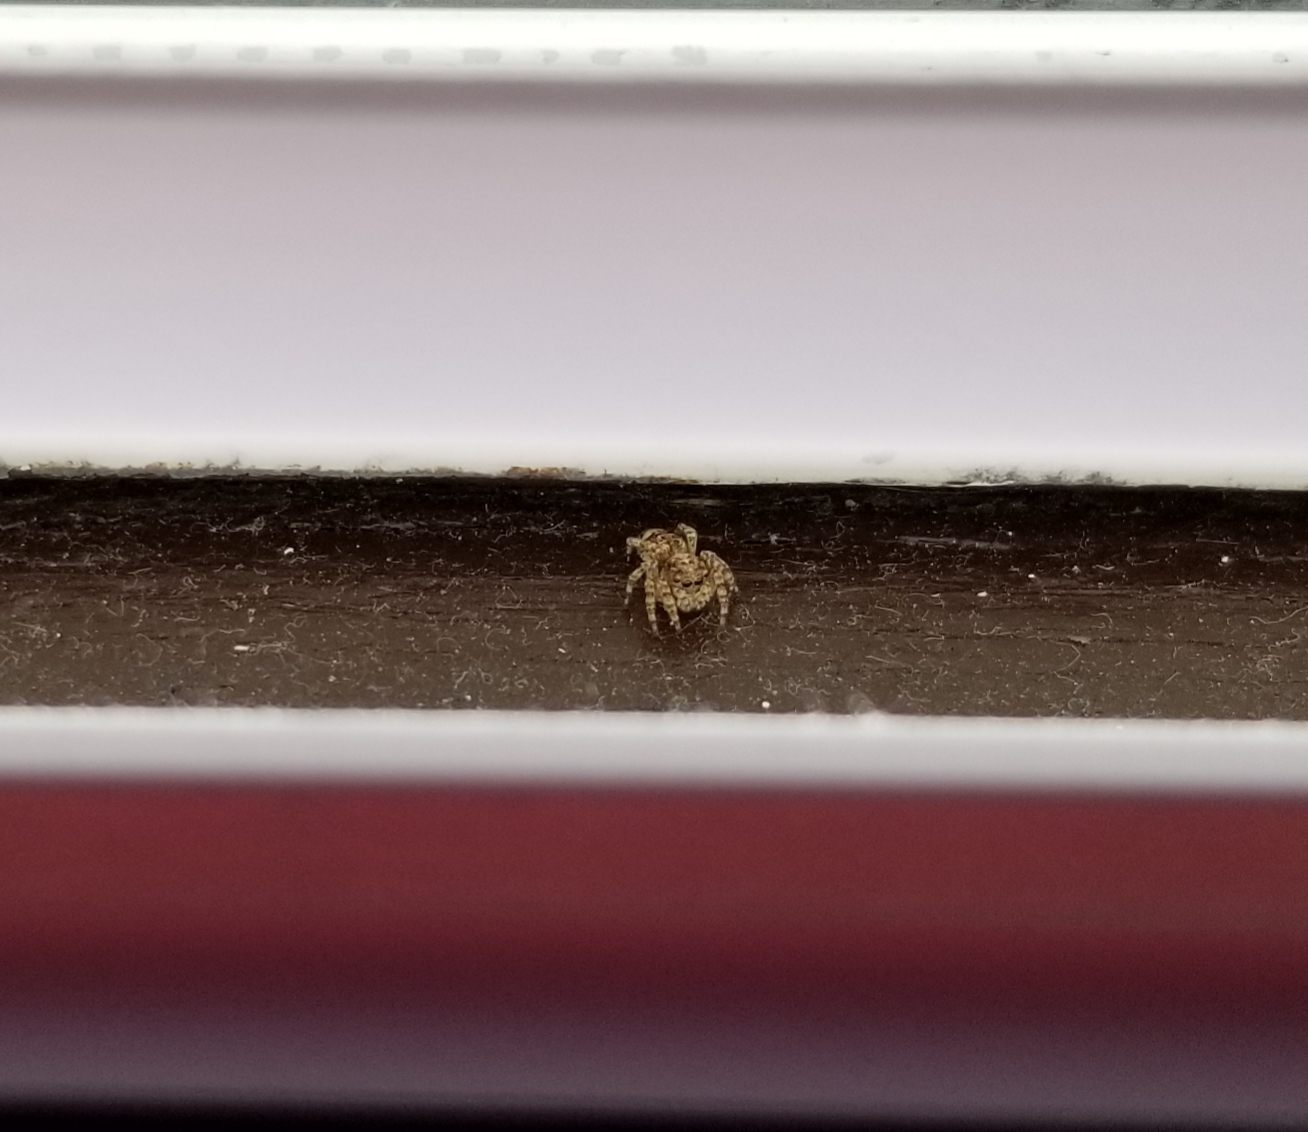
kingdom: Animalia
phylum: Arthropoda
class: Arachnida
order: Araneae
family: Salticidae
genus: Attulus
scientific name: Attulus fasciger
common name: Asiatic wall jumping spider
